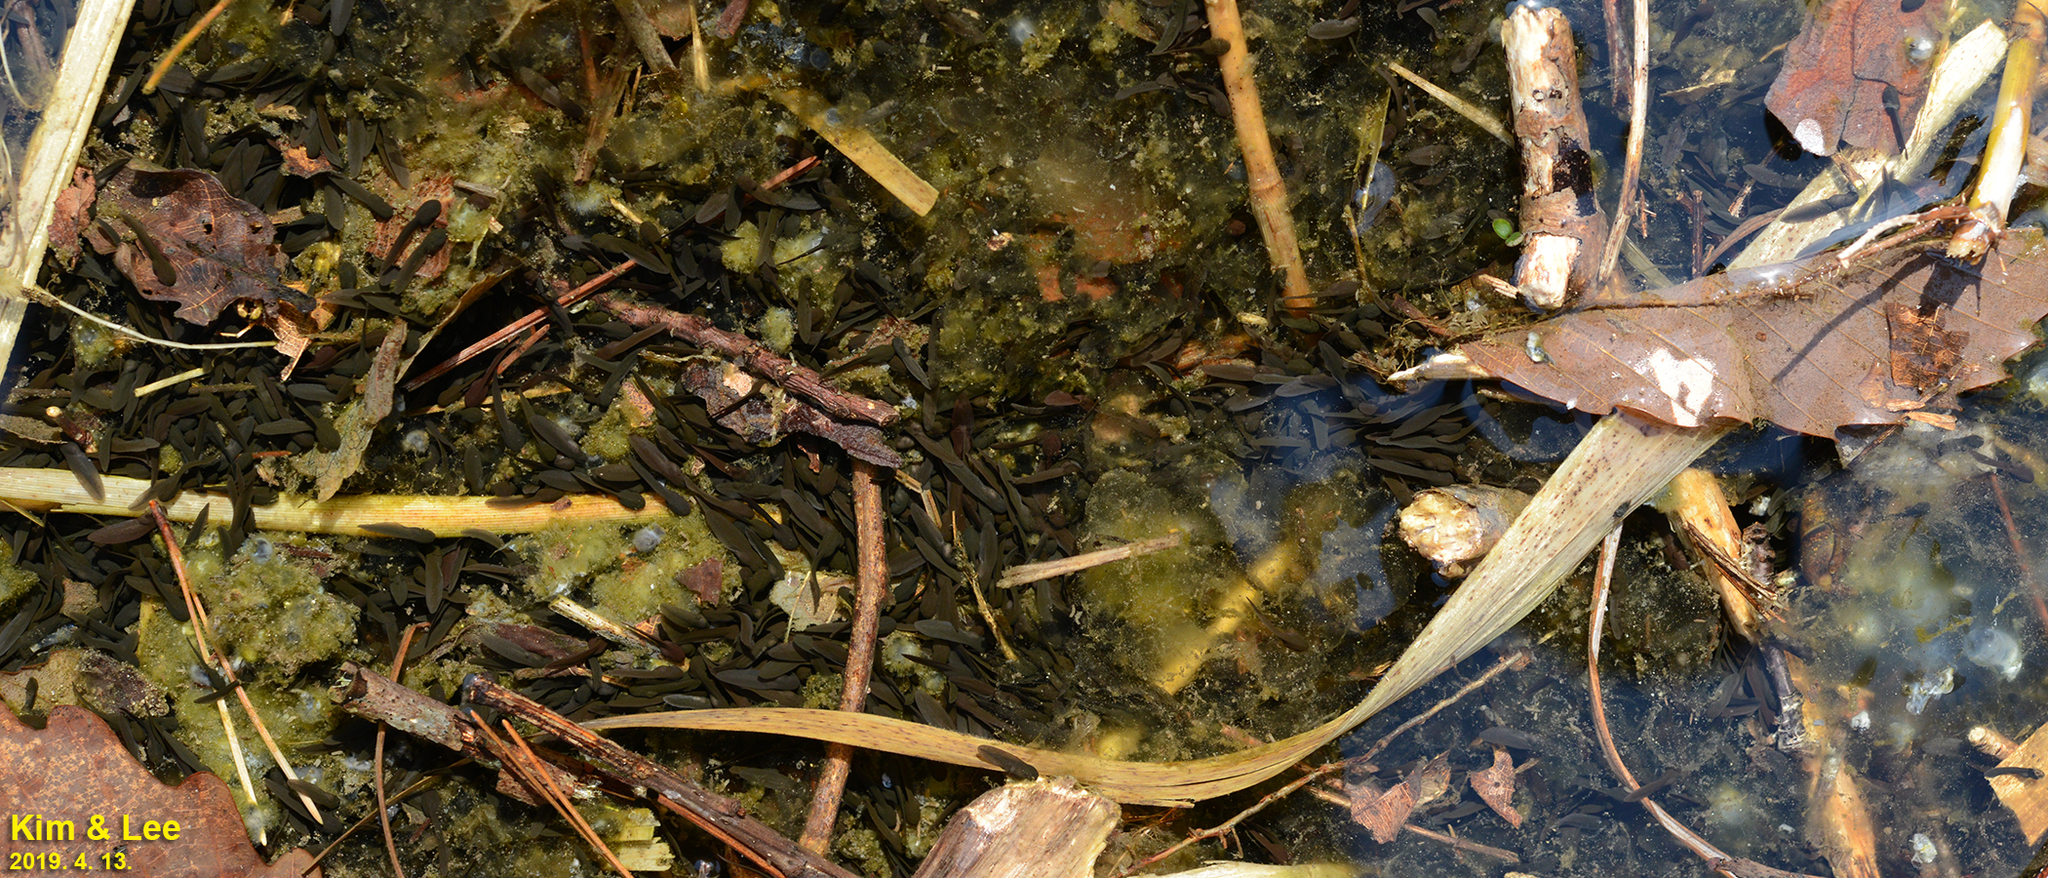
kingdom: Animalia
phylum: Chordata
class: Amphibia
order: Anura
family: Ranidae
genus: Rana
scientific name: Rana huanrenensis
